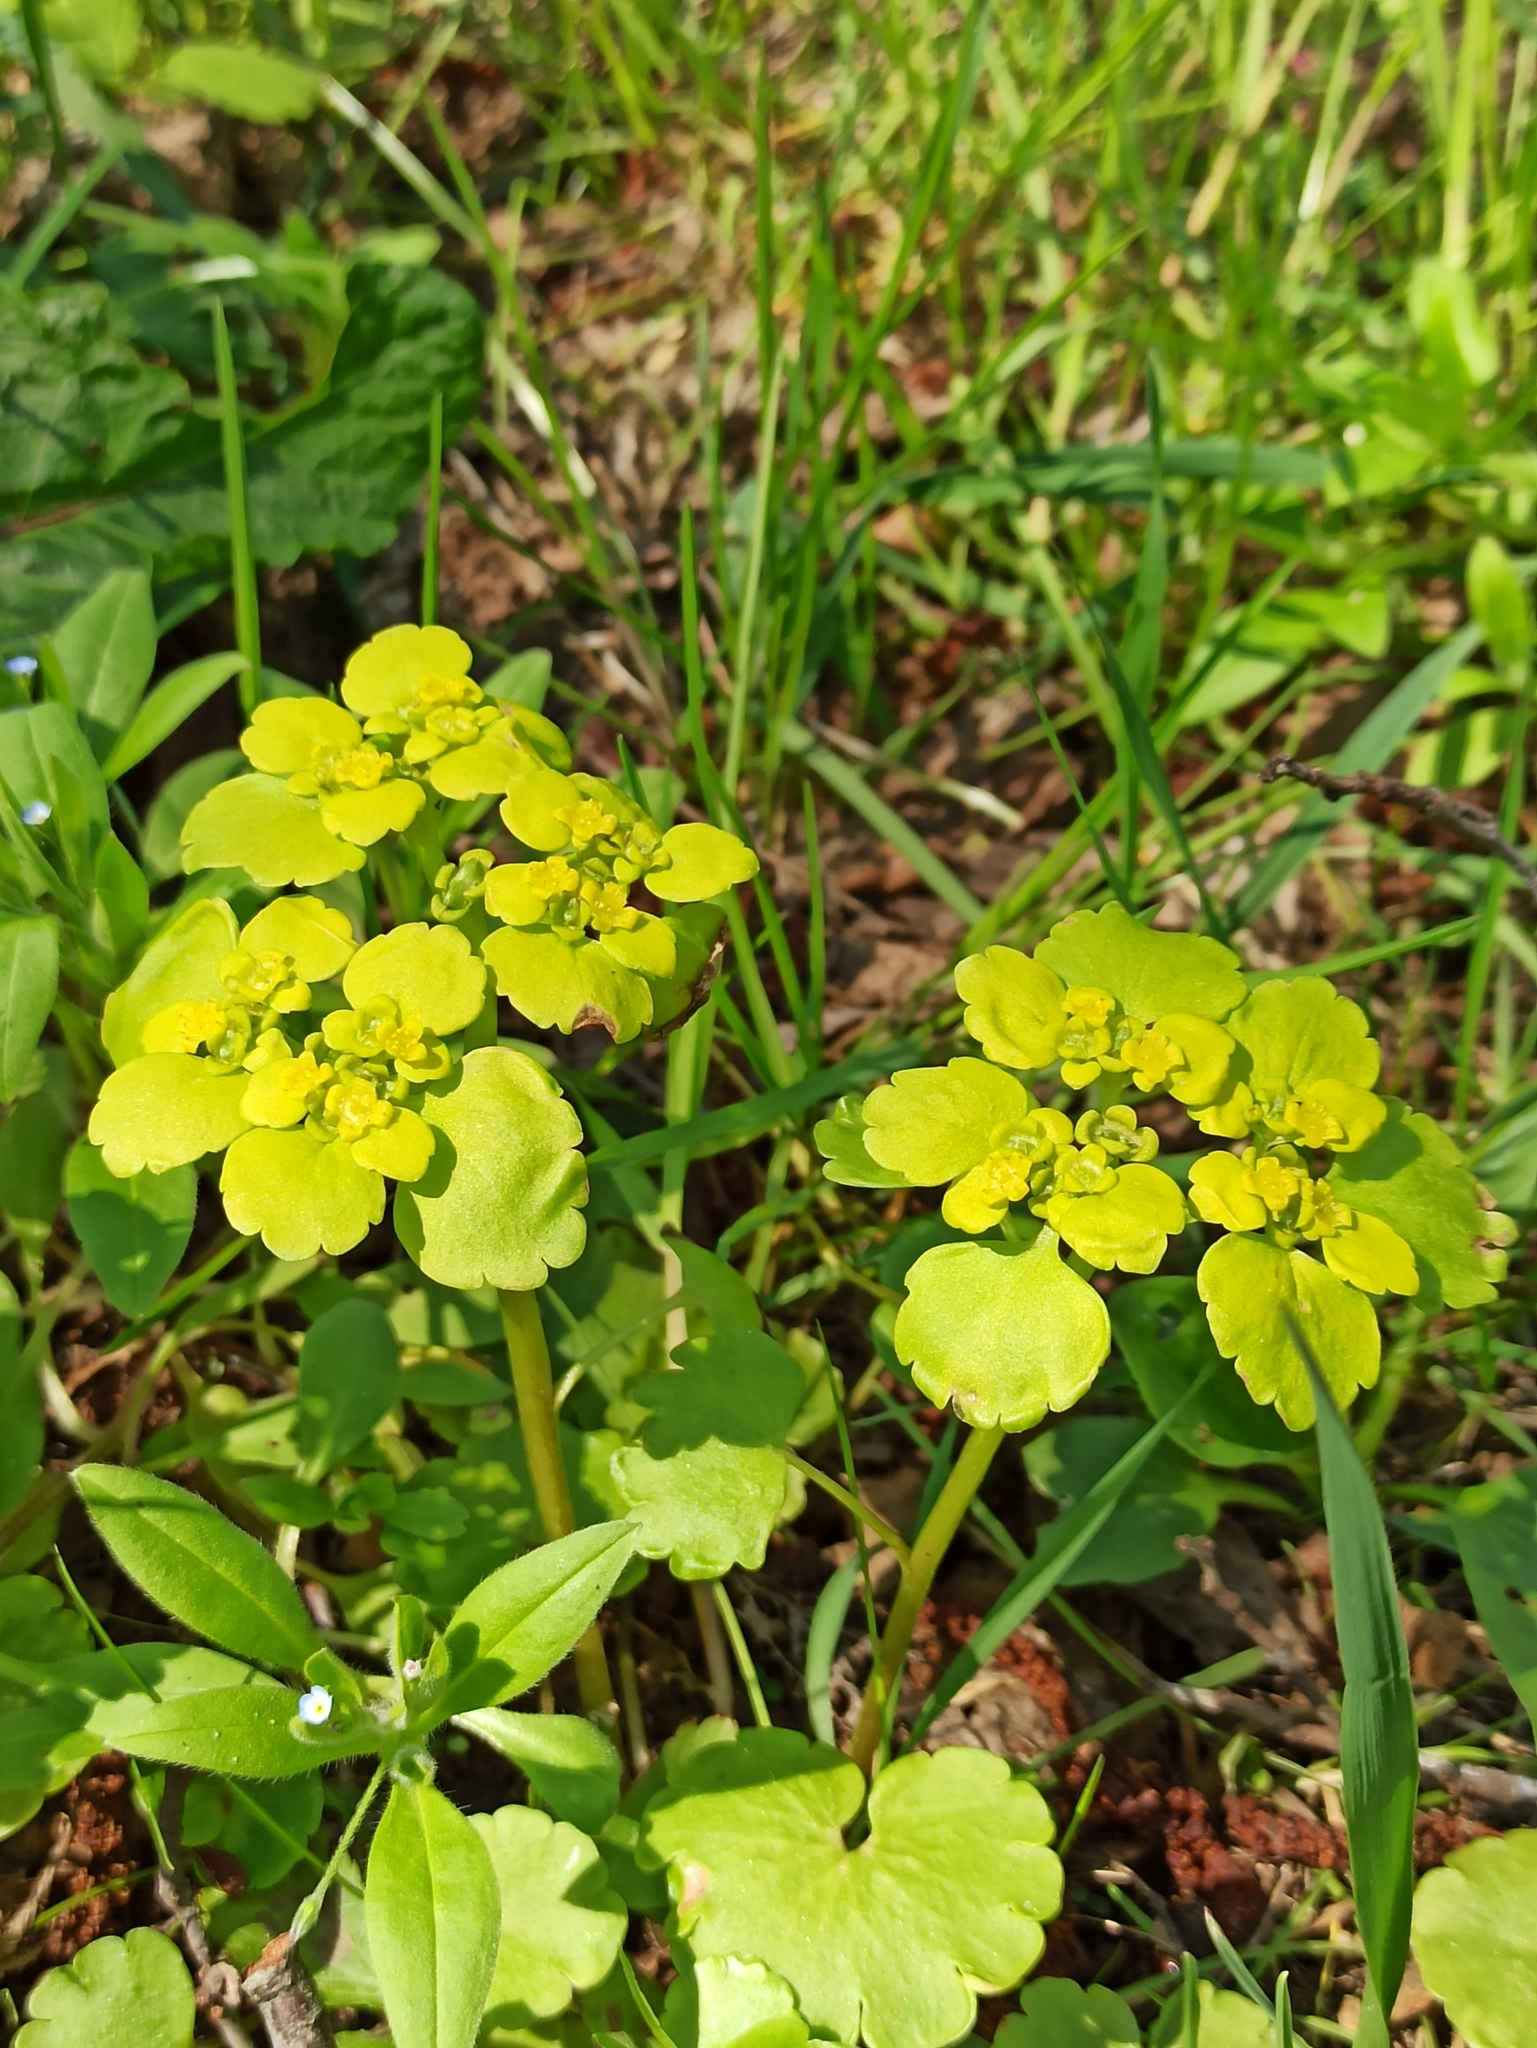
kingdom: Plantae
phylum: Tracheophyta
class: Magnoliopsida
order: Saxifragales
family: Saxifragaceae
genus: Chrysosplenium
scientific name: Chrysosplenium alternifolium
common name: Alternate-leaved golden-saxifrage
